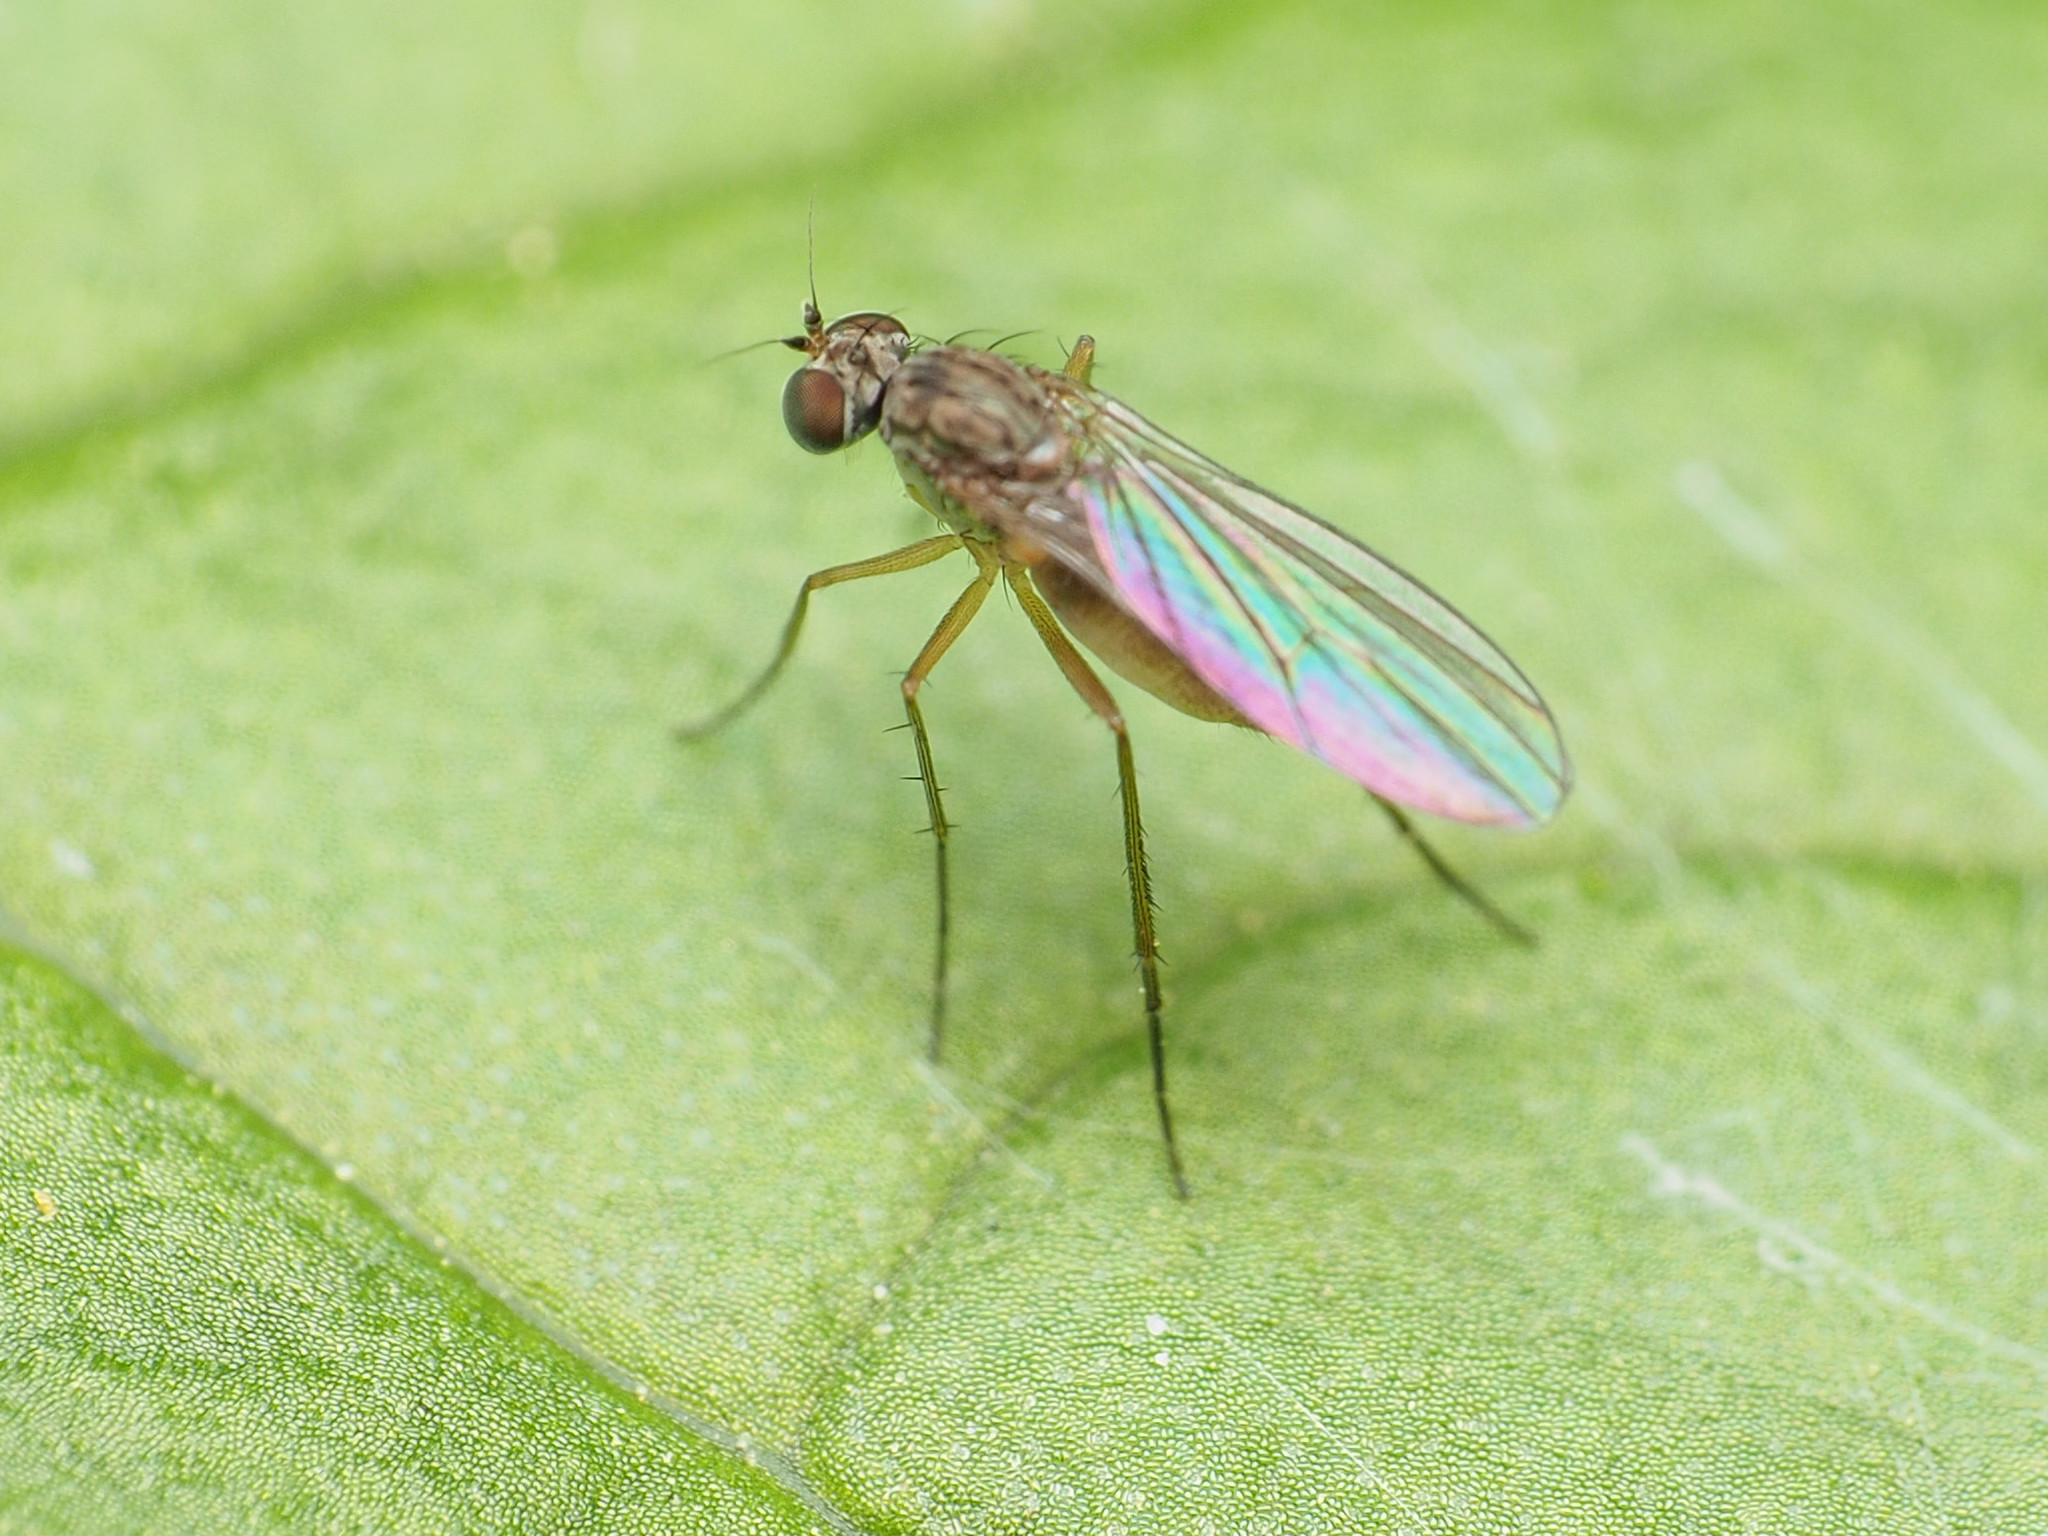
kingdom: Animalia
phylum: Arthropoda
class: Insecta
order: Diptera
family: Dolichopodidae
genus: Sympycnus
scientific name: Sympycnus lineatus
